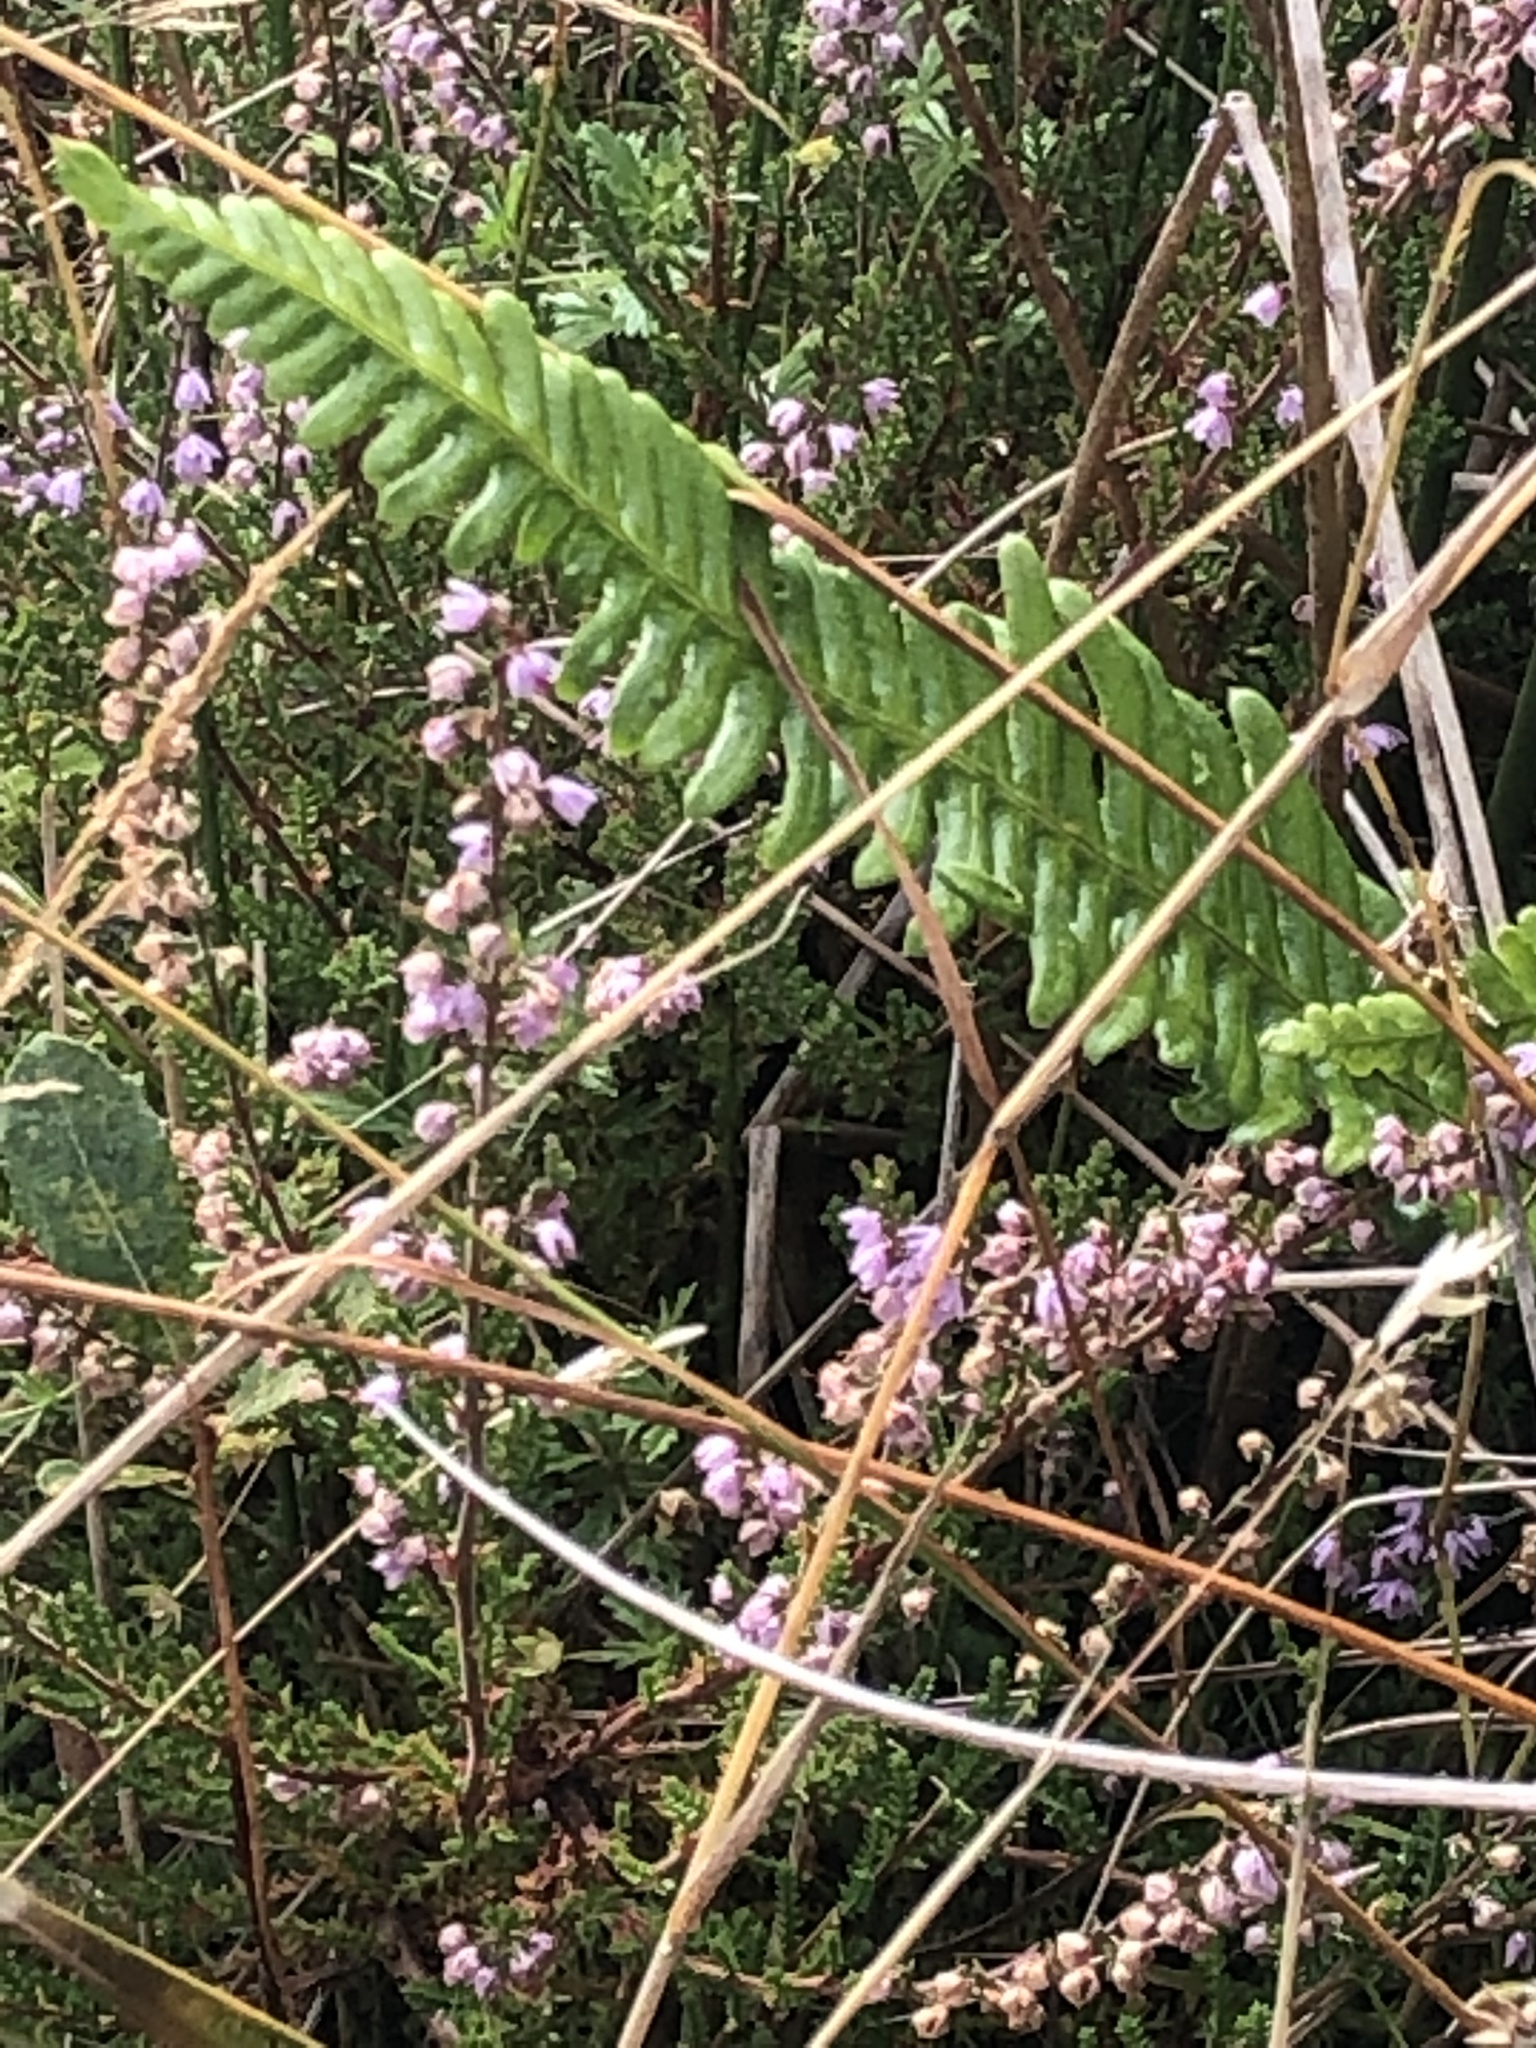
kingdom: Plantae
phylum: Tracheophyta
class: Polypodiopsida
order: Polypodiales
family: Blechnaceae
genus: Struthiopteris
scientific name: Struthiopteris spicant
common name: Deer fern
